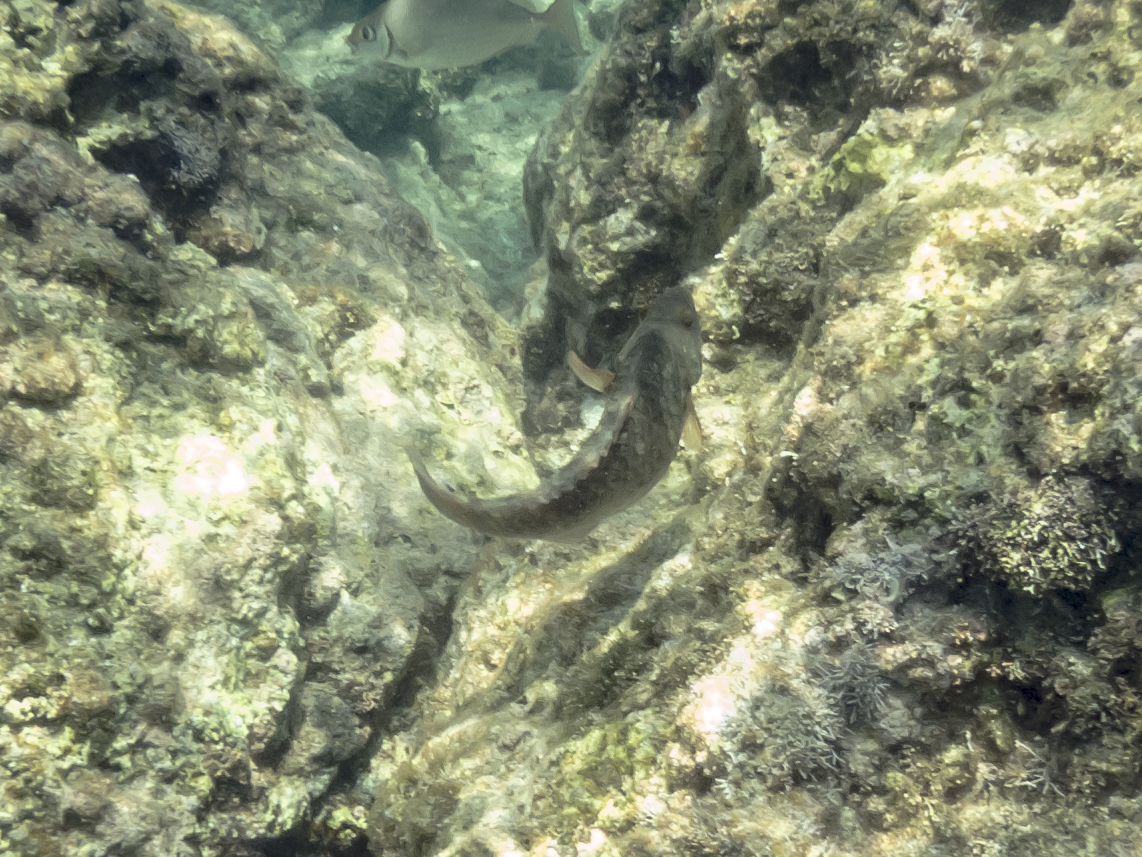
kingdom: Animalia
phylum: Chordata
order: Perciformes
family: Scaridae
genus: Sparisoma
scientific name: Sparisoma cretense
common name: Parrotfish
